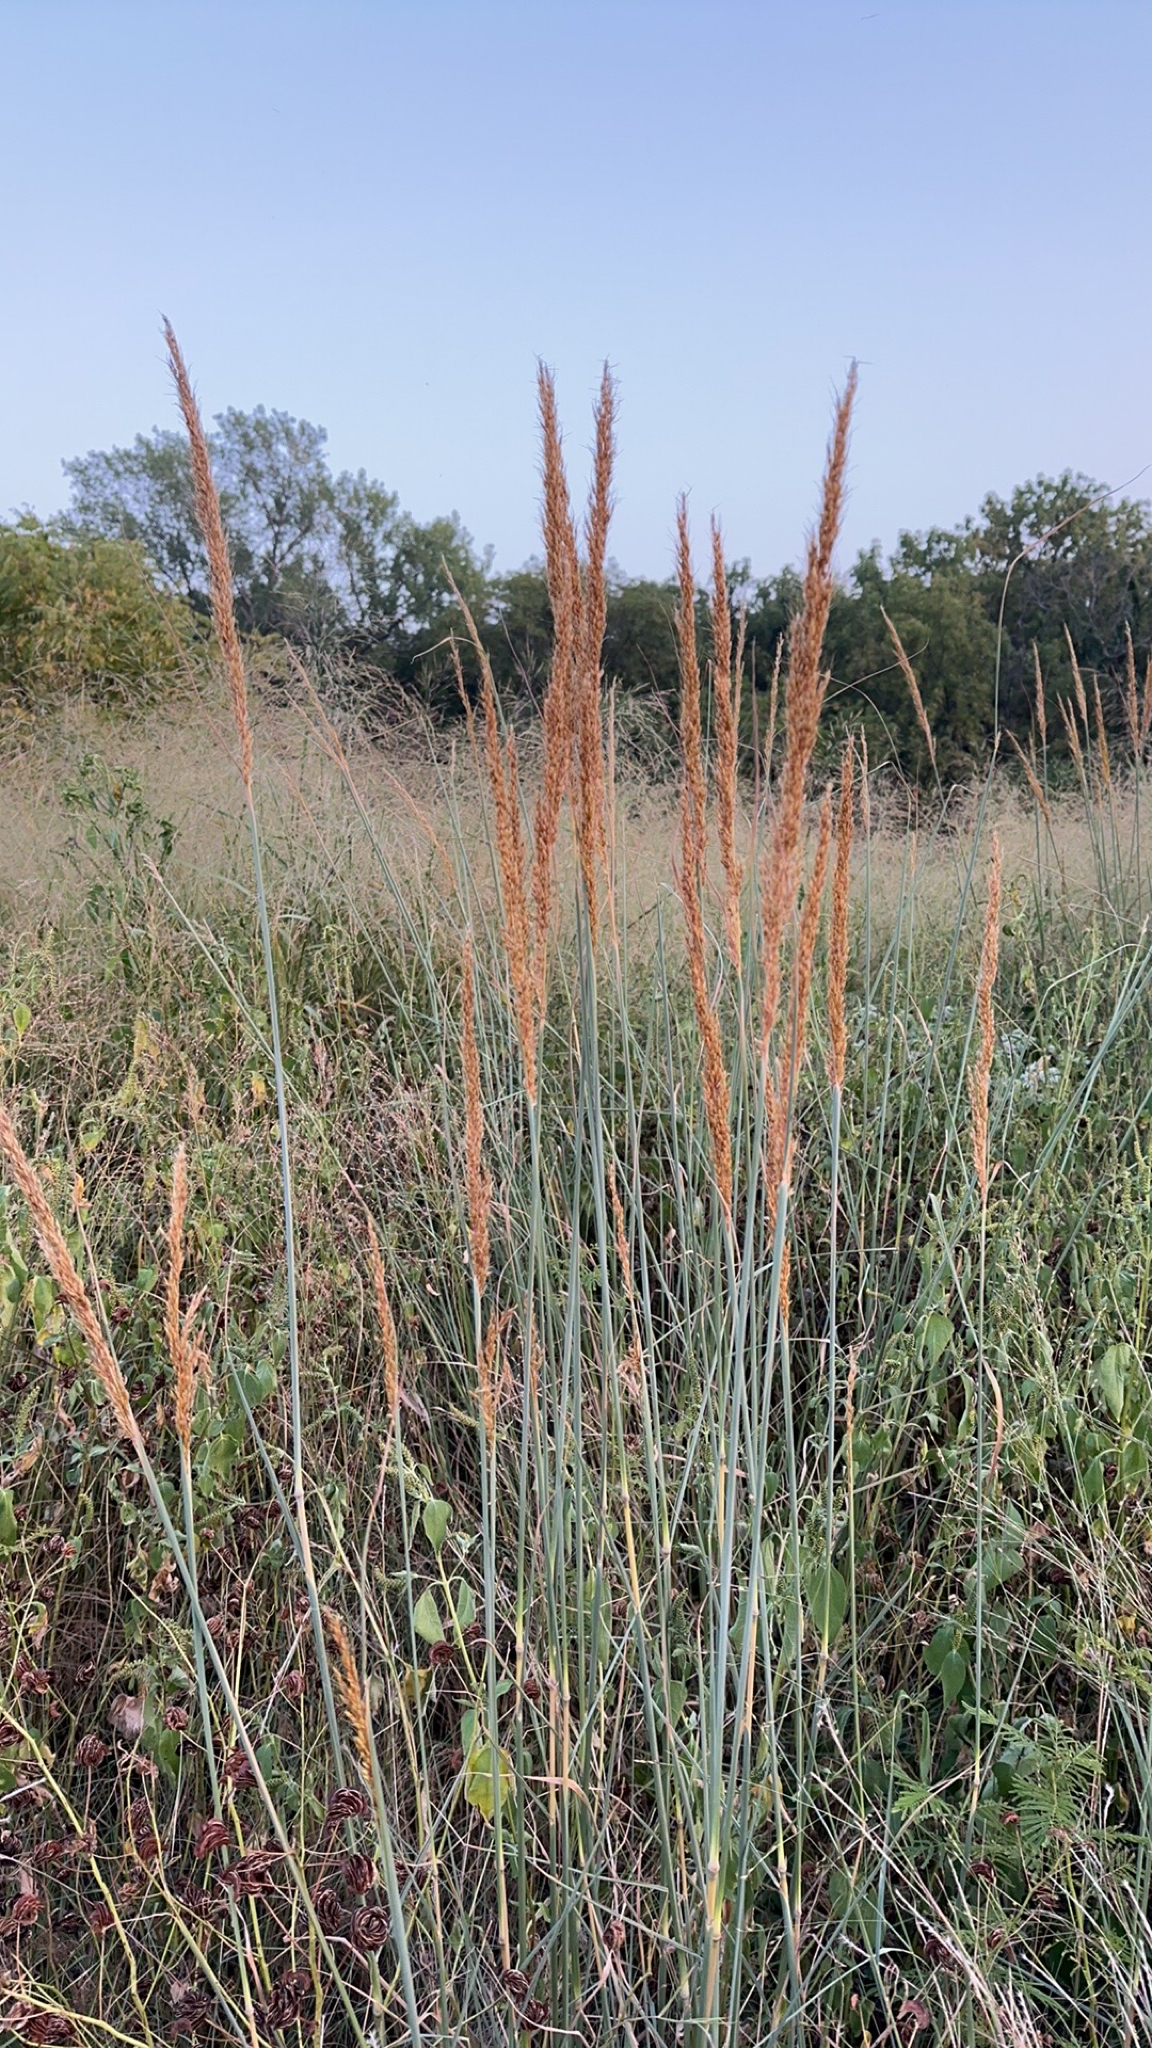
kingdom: Plantae
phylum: Tracheophyta
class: Liliopsida
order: Poales
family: Poaceae
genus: Sorghastrum
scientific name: Sorghastrum nutans
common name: Indian grass
